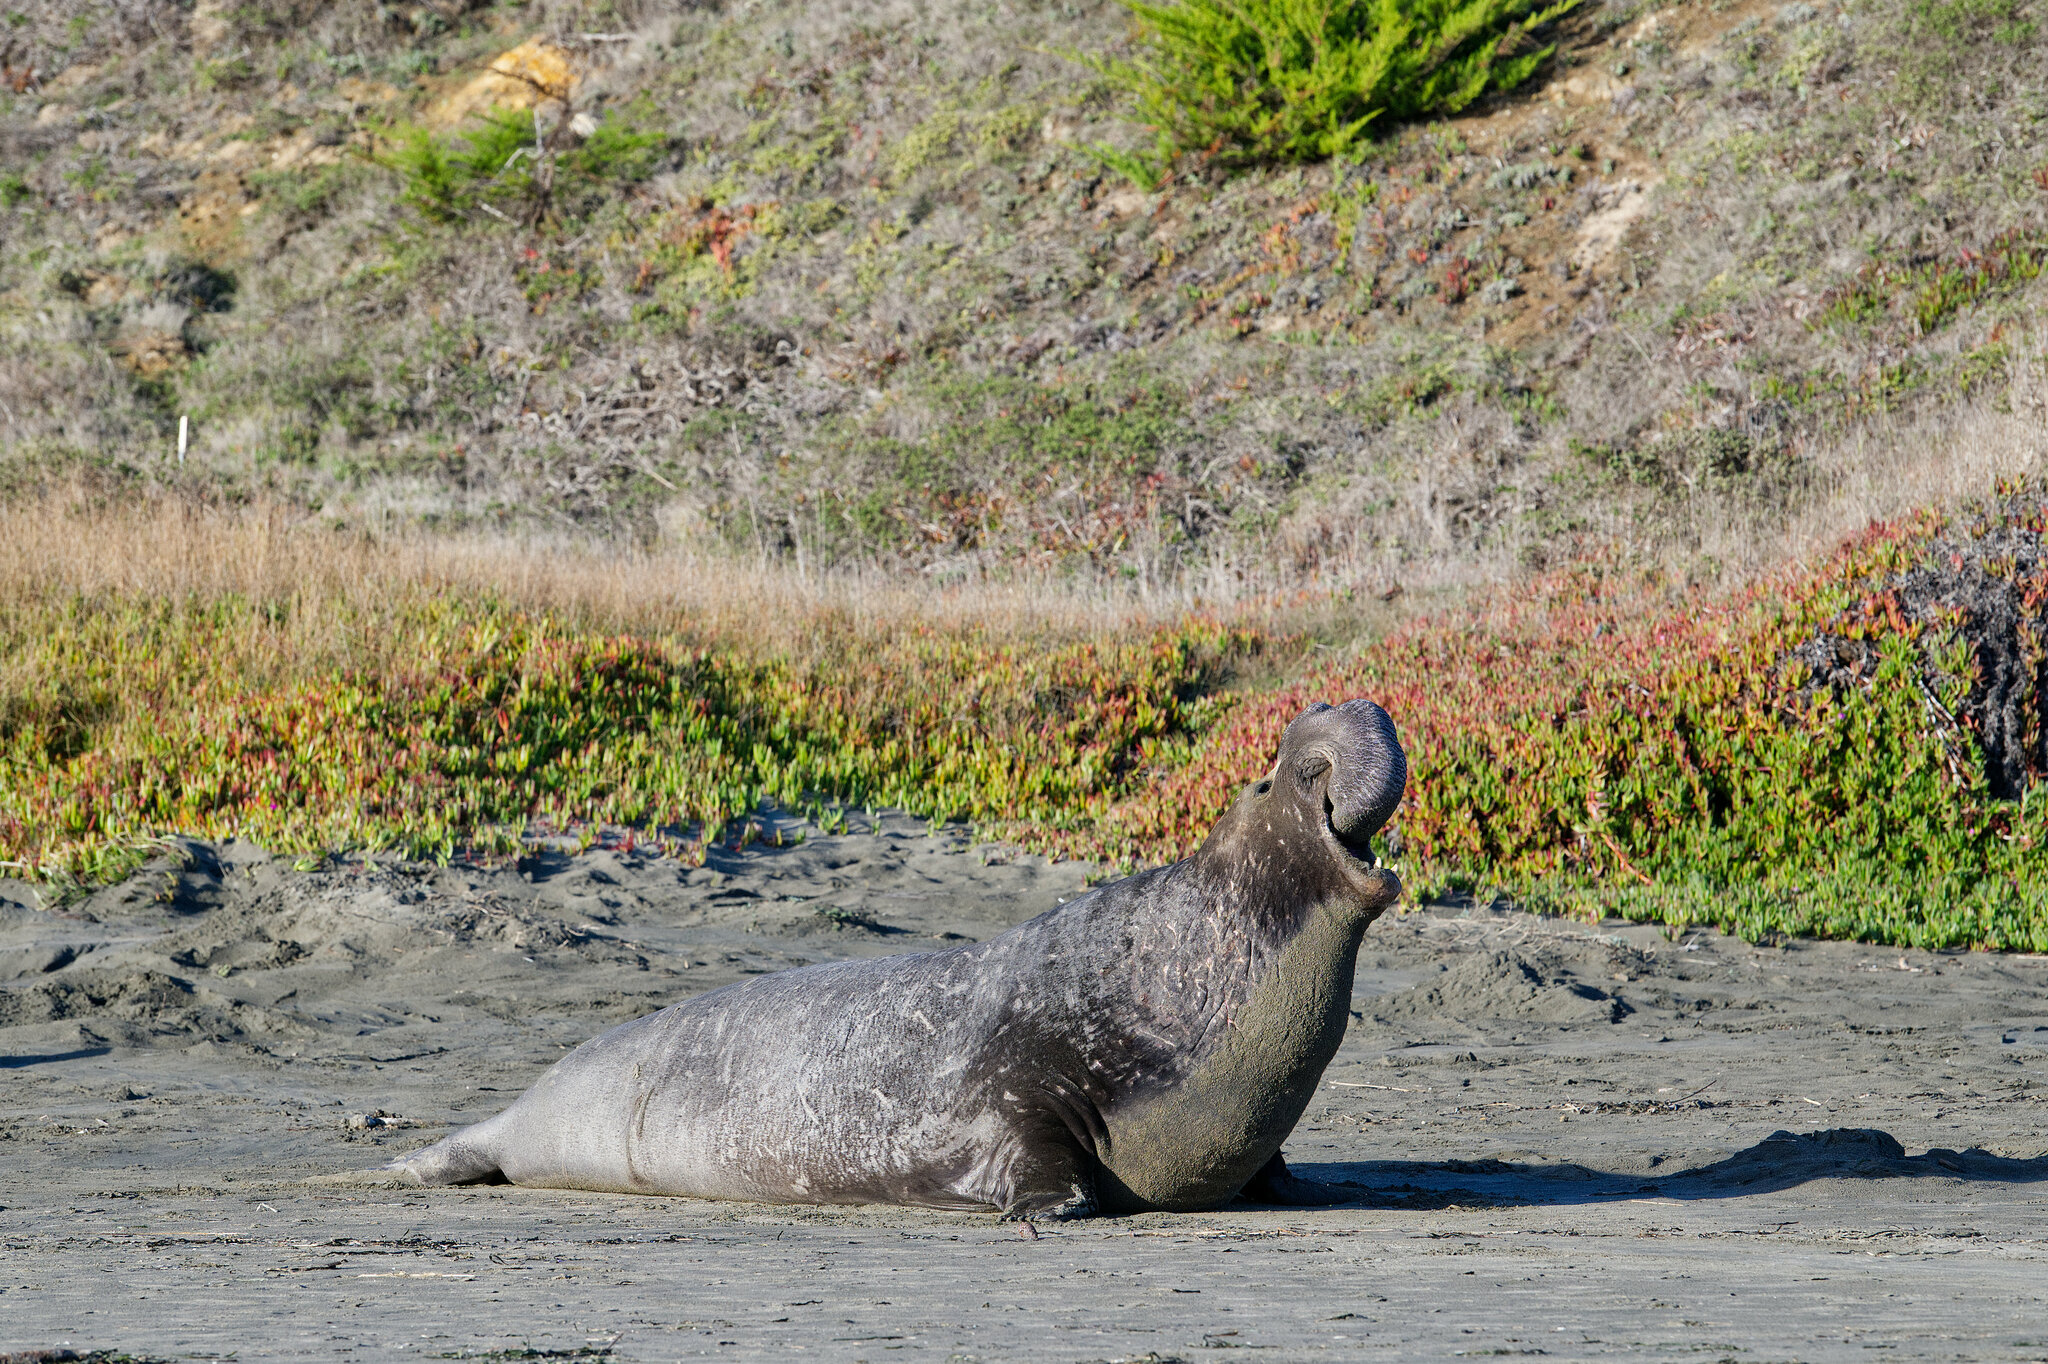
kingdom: Animalia
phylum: Chordata
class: Mammalia
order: Carnivora
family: Phocidae
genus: Mirounga
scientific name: Mirounga angustirostris
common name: Northern elephant seal
